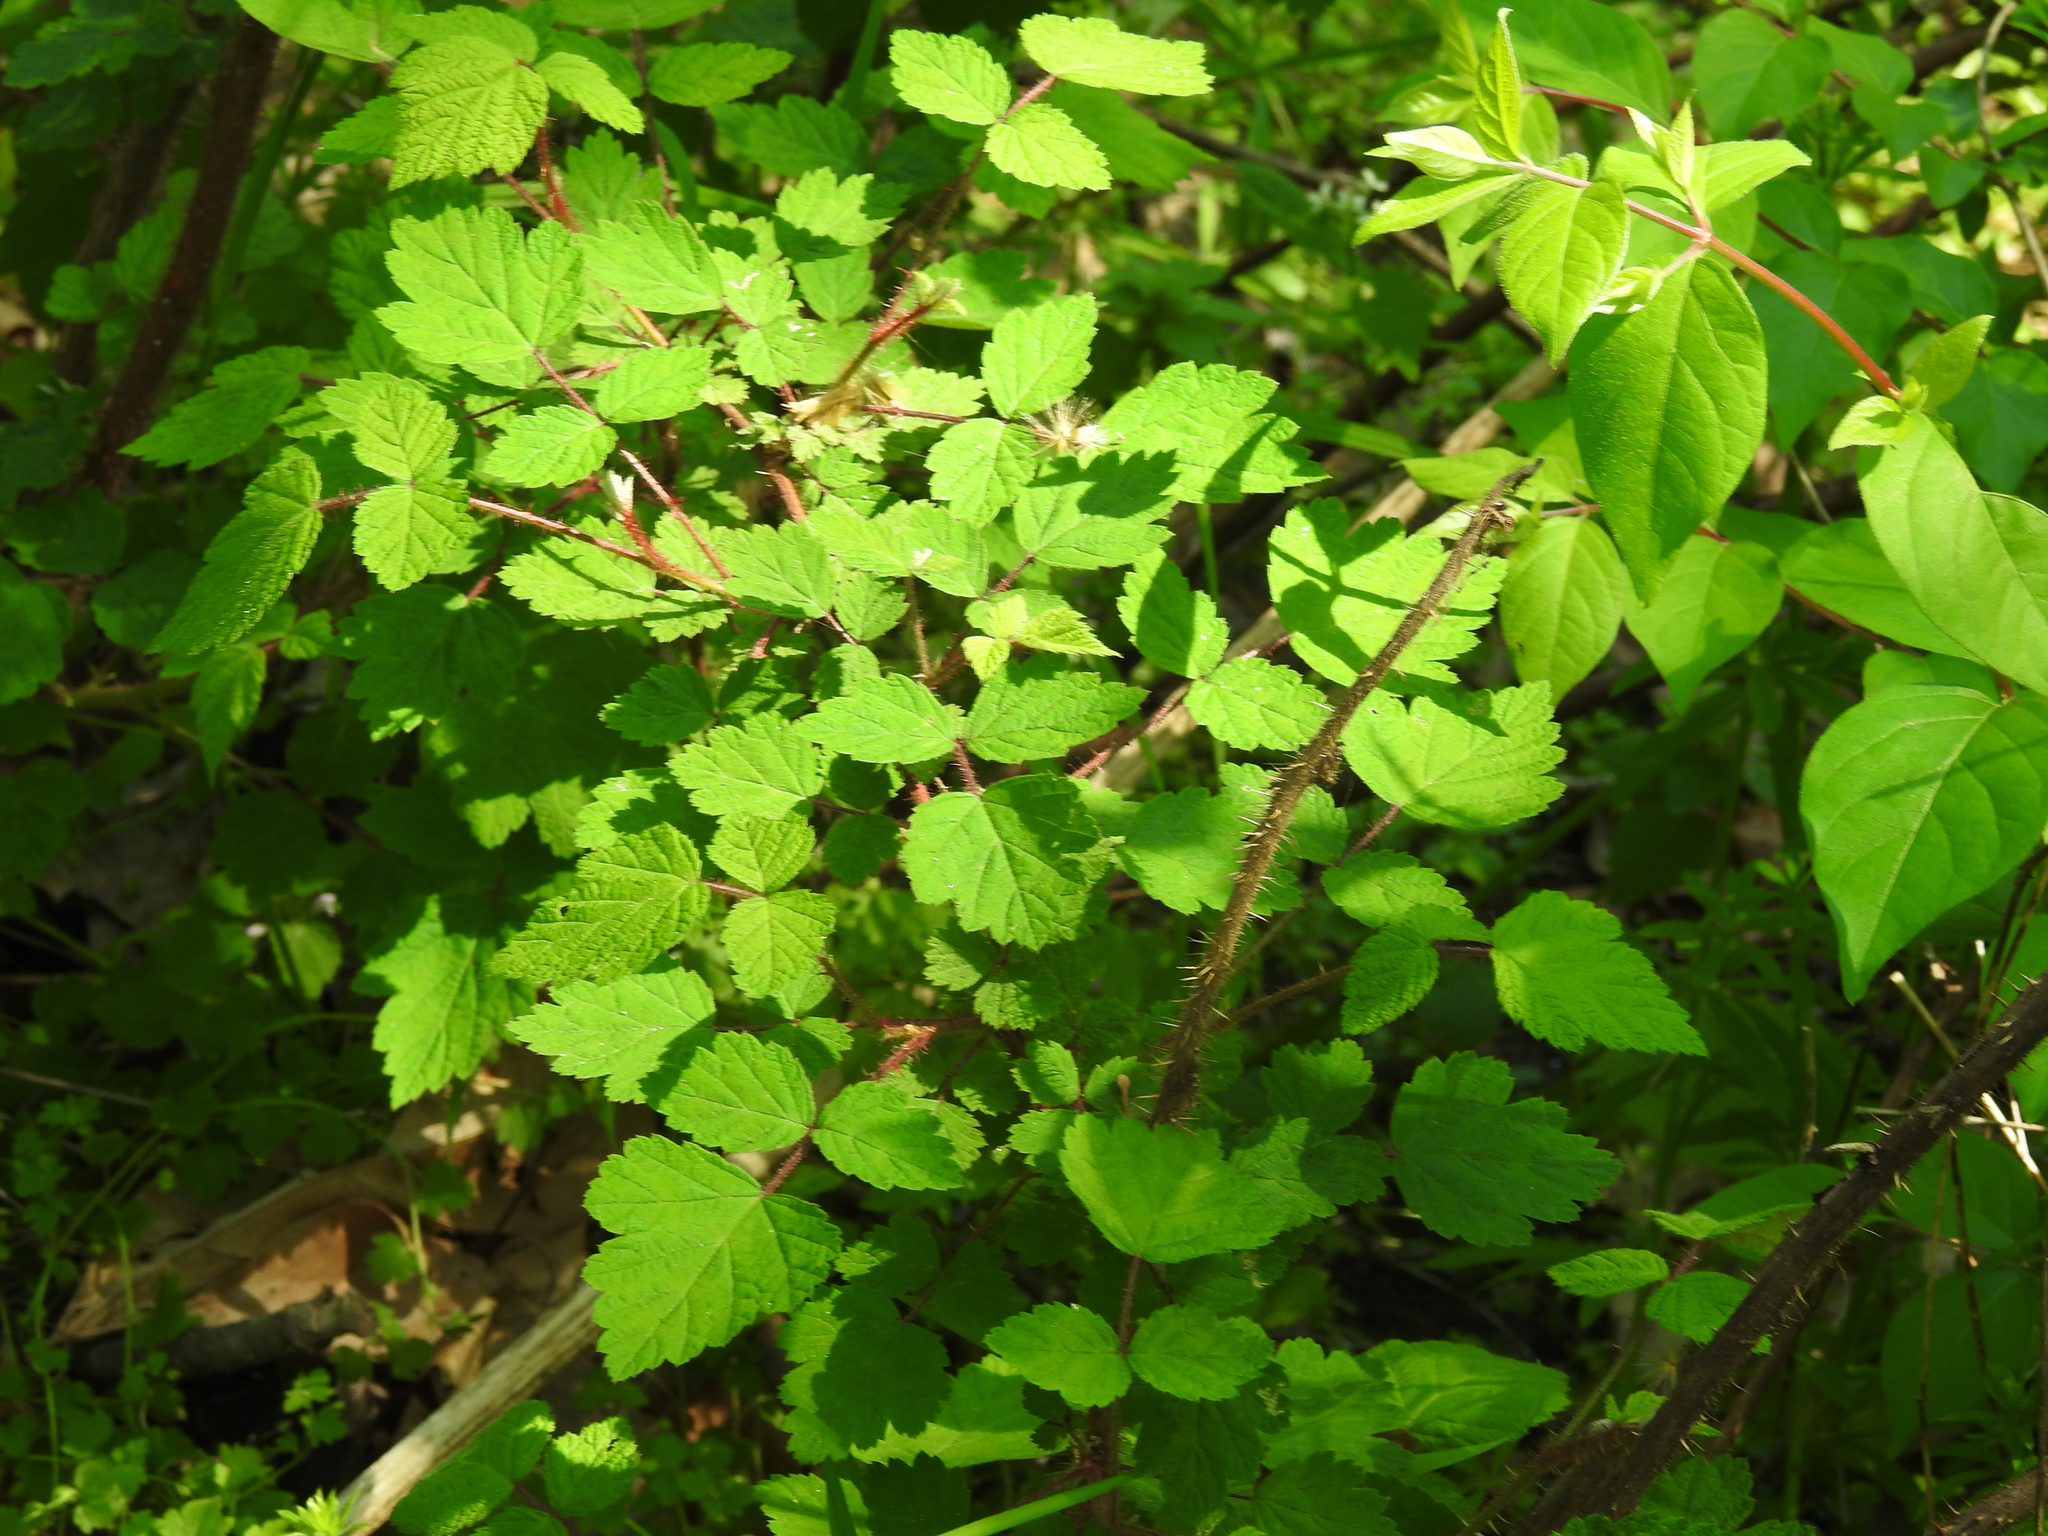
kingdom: Plantae
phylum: Tracheophyta
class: Magnoliopsida
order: Rosales
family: Rosaceae
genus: Rubus
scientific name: Rubus phoenicolasius
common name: Japanese wineberry
